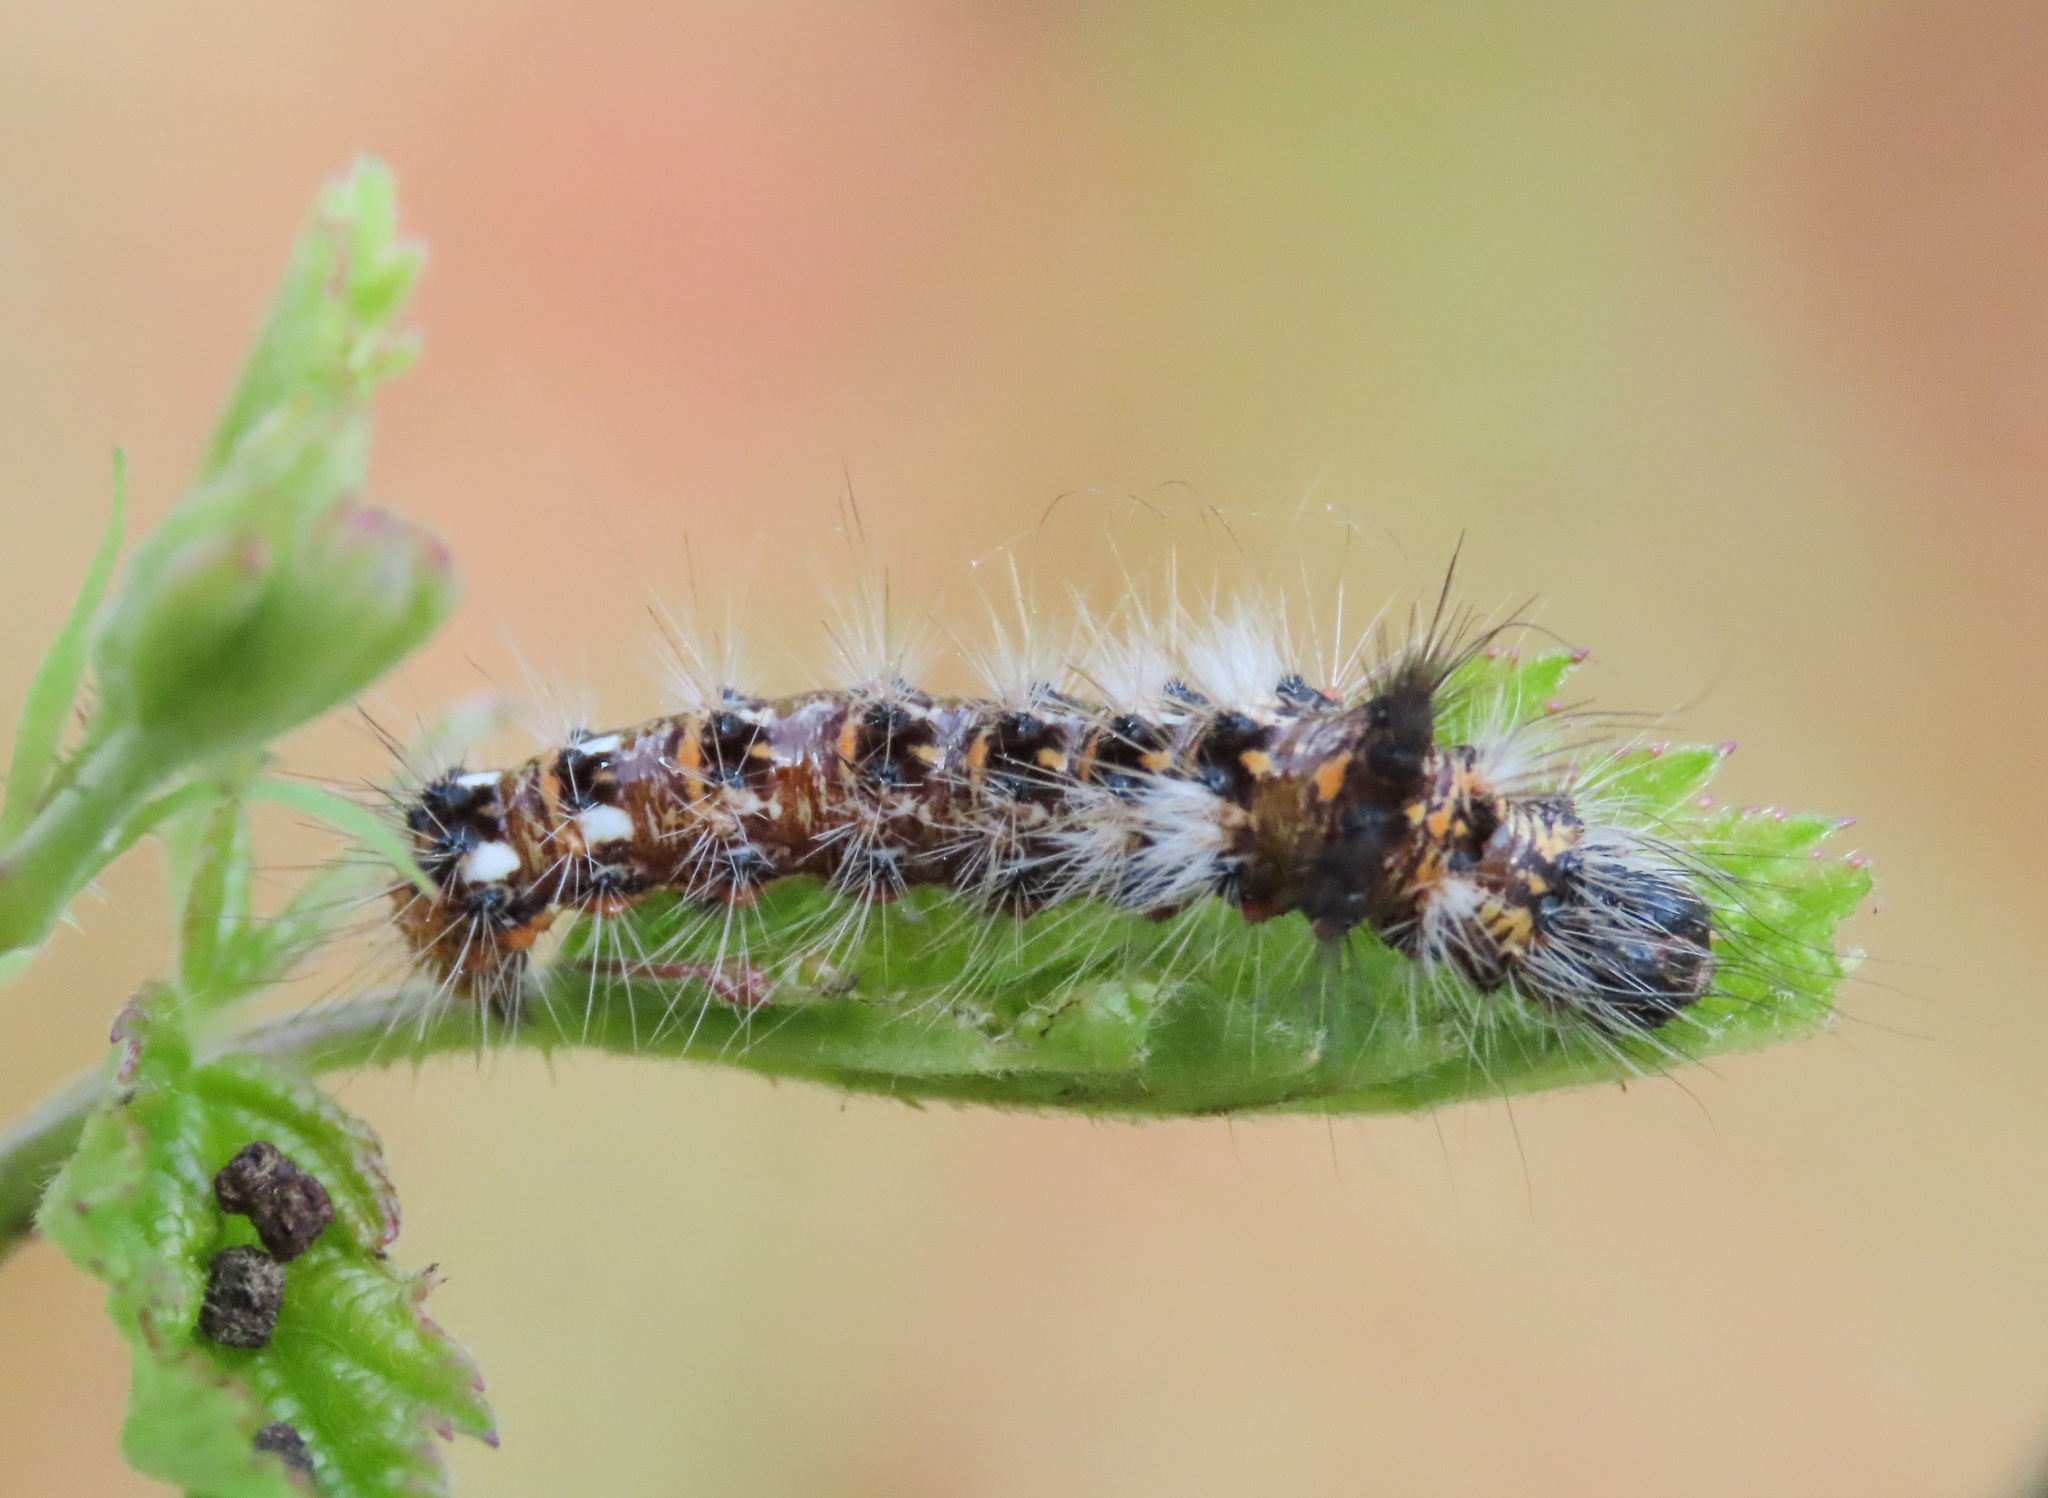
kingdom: Animalia
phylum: Arthropoda
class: Insecta
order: Lepidoptera
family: Noctuidae
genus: Acronicta
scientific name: Acronicta rumicis
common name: Knot grass
